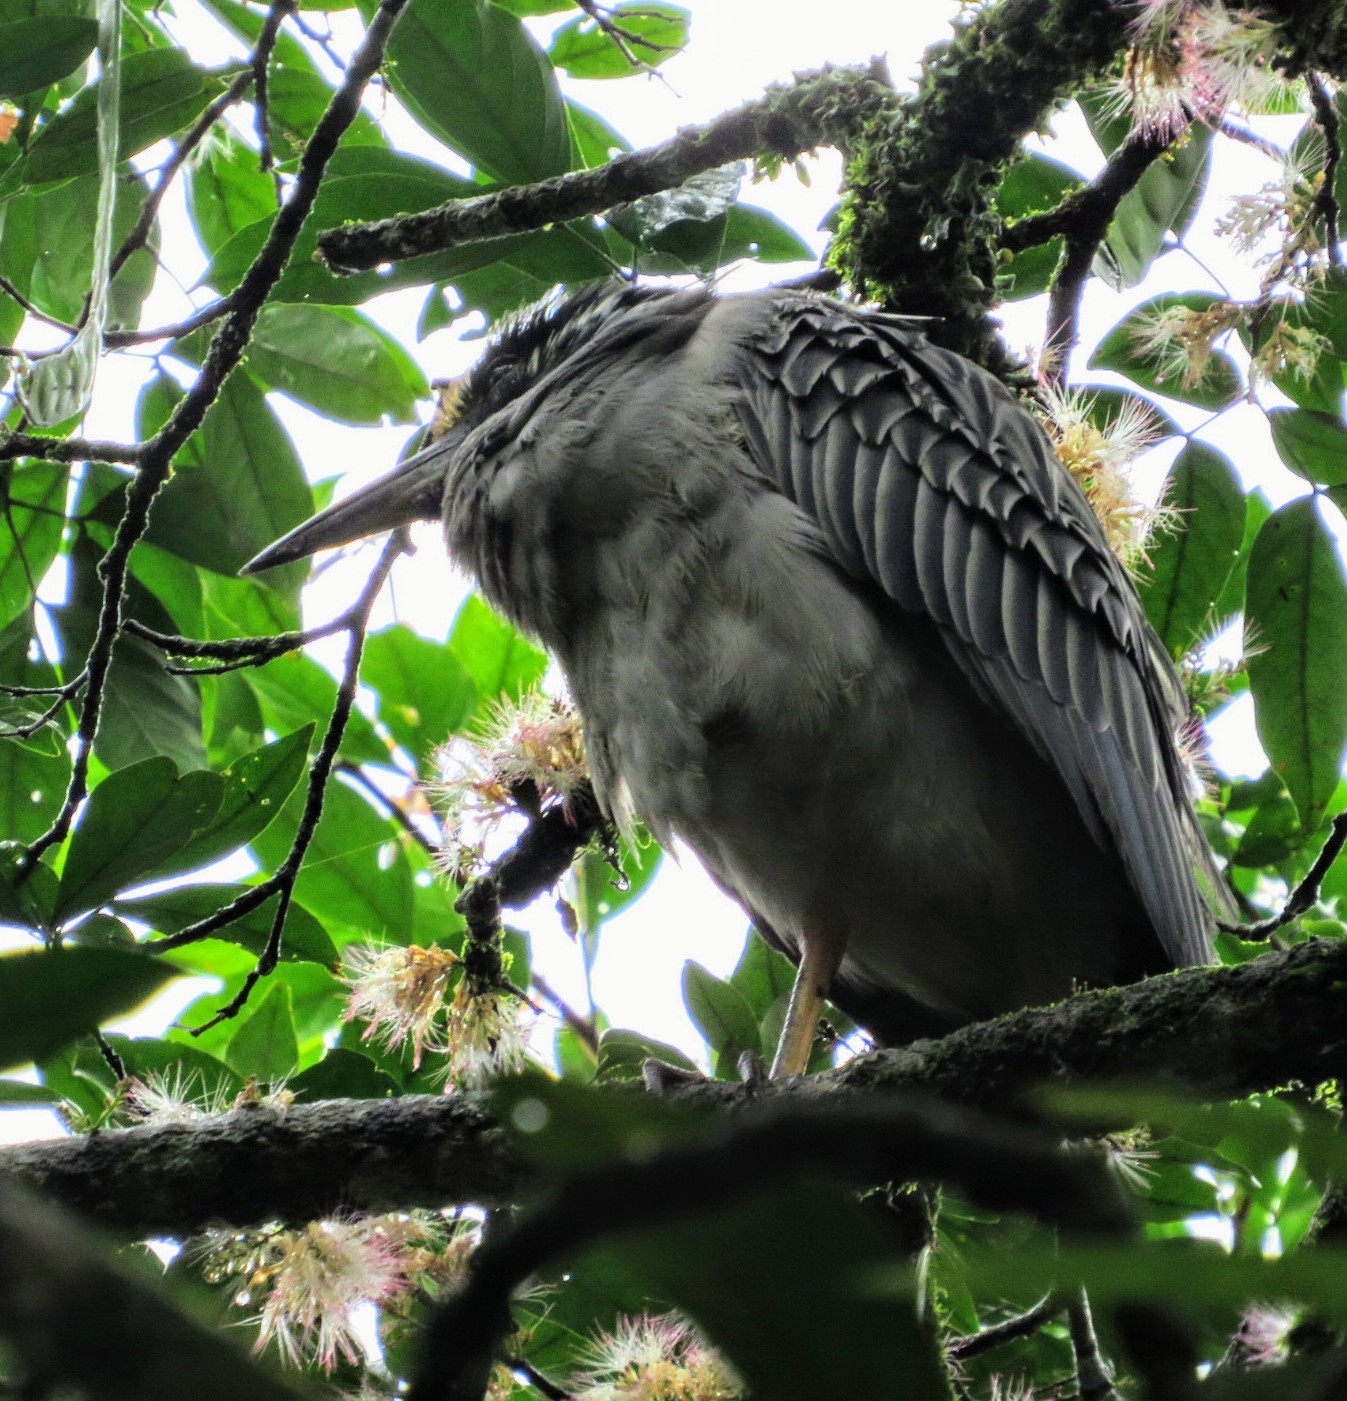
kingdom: Animalia
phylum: Chordata
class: Aves
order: Pelecaniformes
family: Ardeidae
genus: Nyctanassa
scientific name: Nyctanassa violacea
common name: Yellow-crowned night heron
